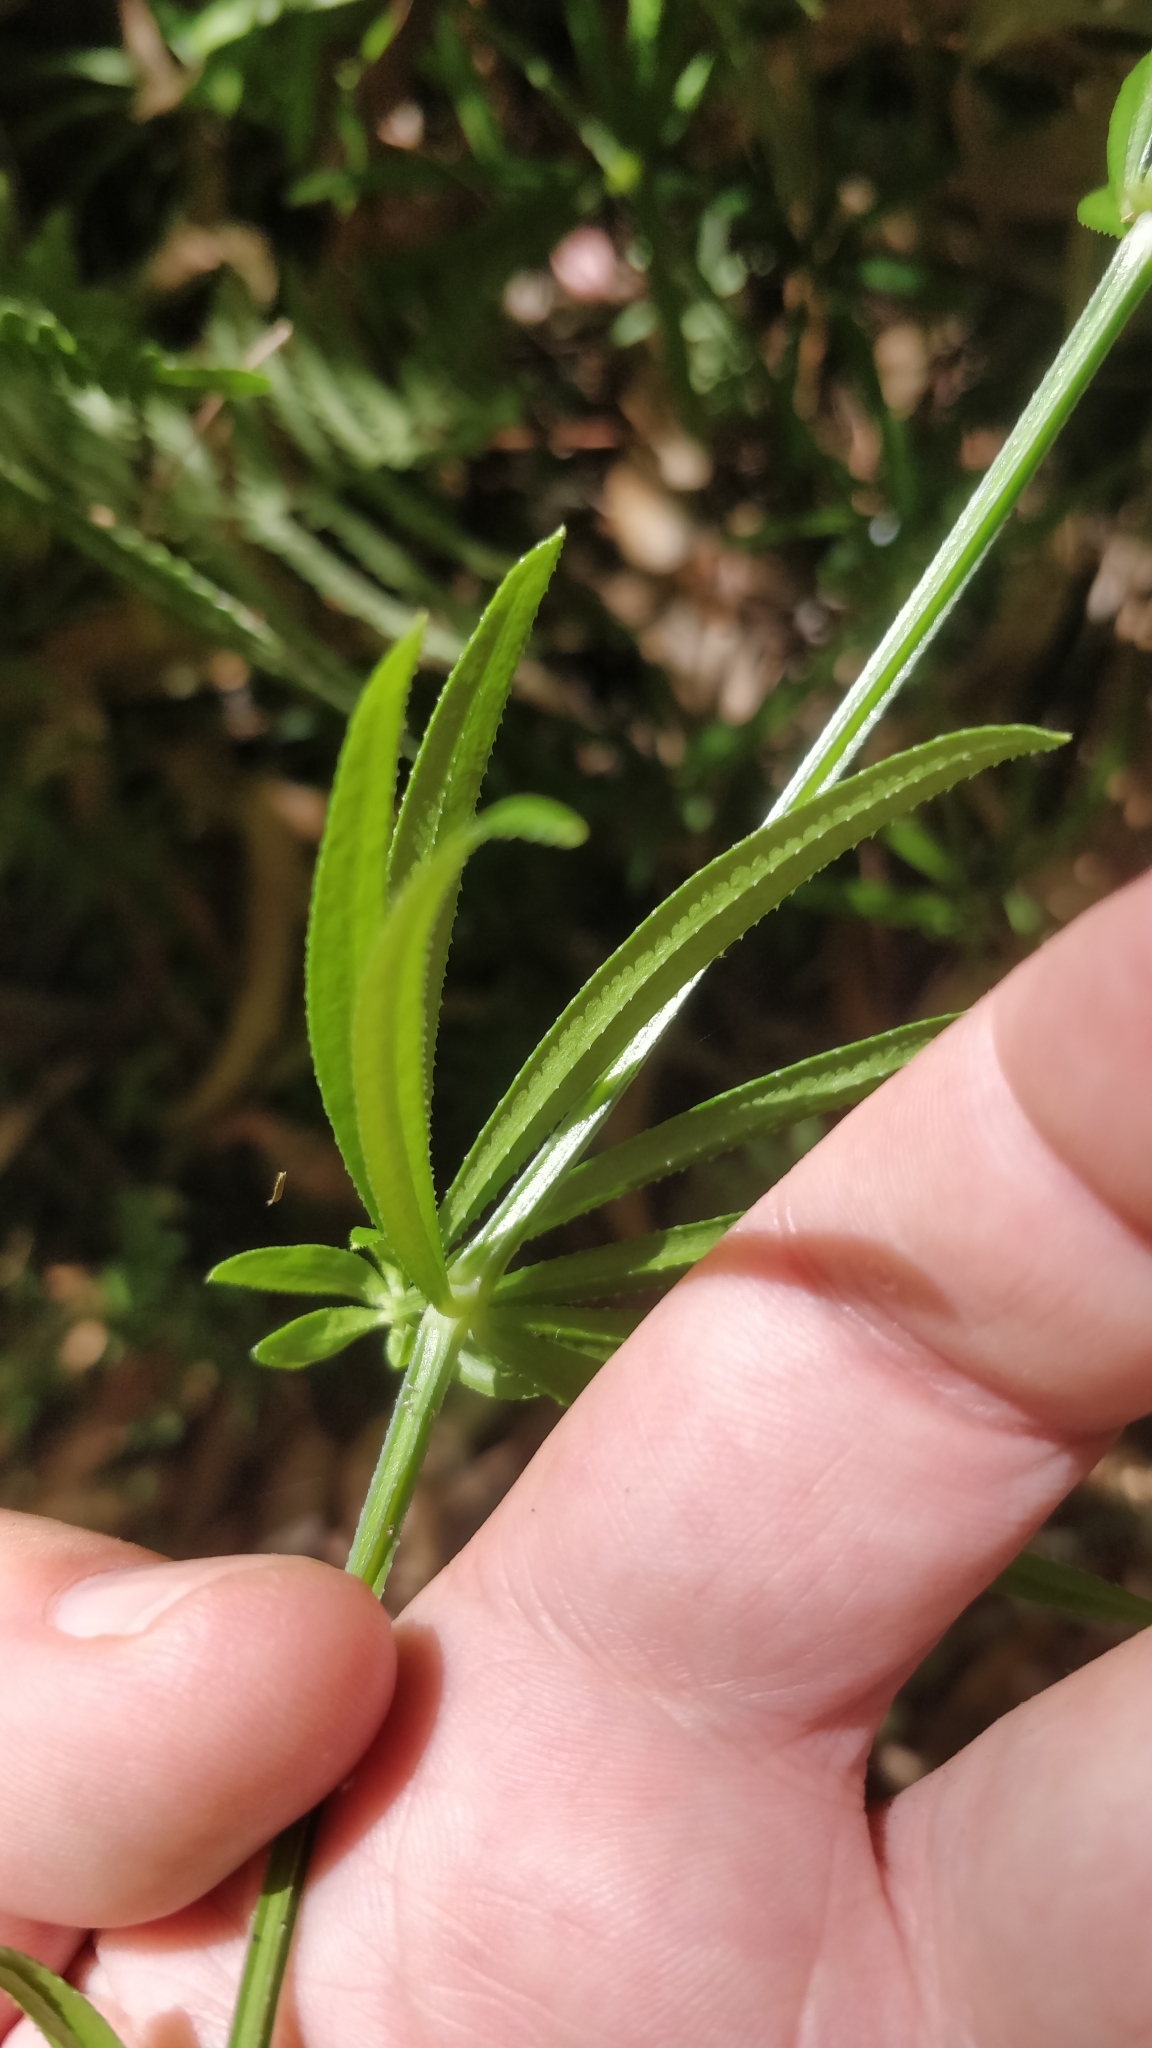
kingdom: Plantae
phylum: Tracheophyta
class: Magnoliopsida
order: Gentianales
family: Rubiaceae
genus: Rubia
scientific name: Rubia occidens
